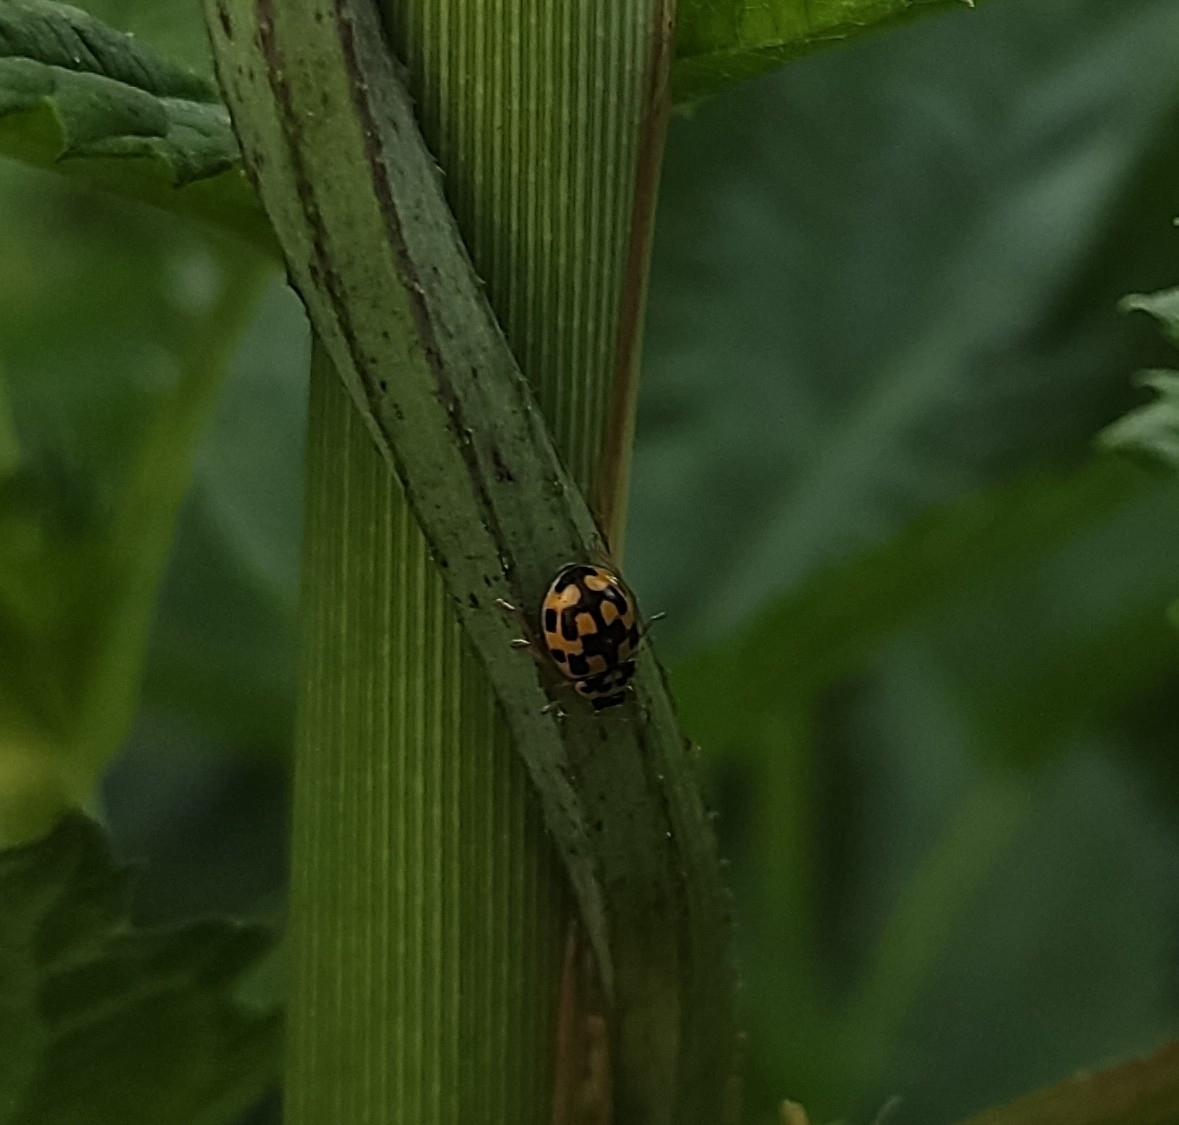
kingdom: Animalia
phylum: Arthropoda
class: Insecta
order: Coleoptera
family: Coccinellidae
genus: Propylaea
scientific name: Propylaea quatuordecimpunctata
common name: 14-spotted ladybird beetle
